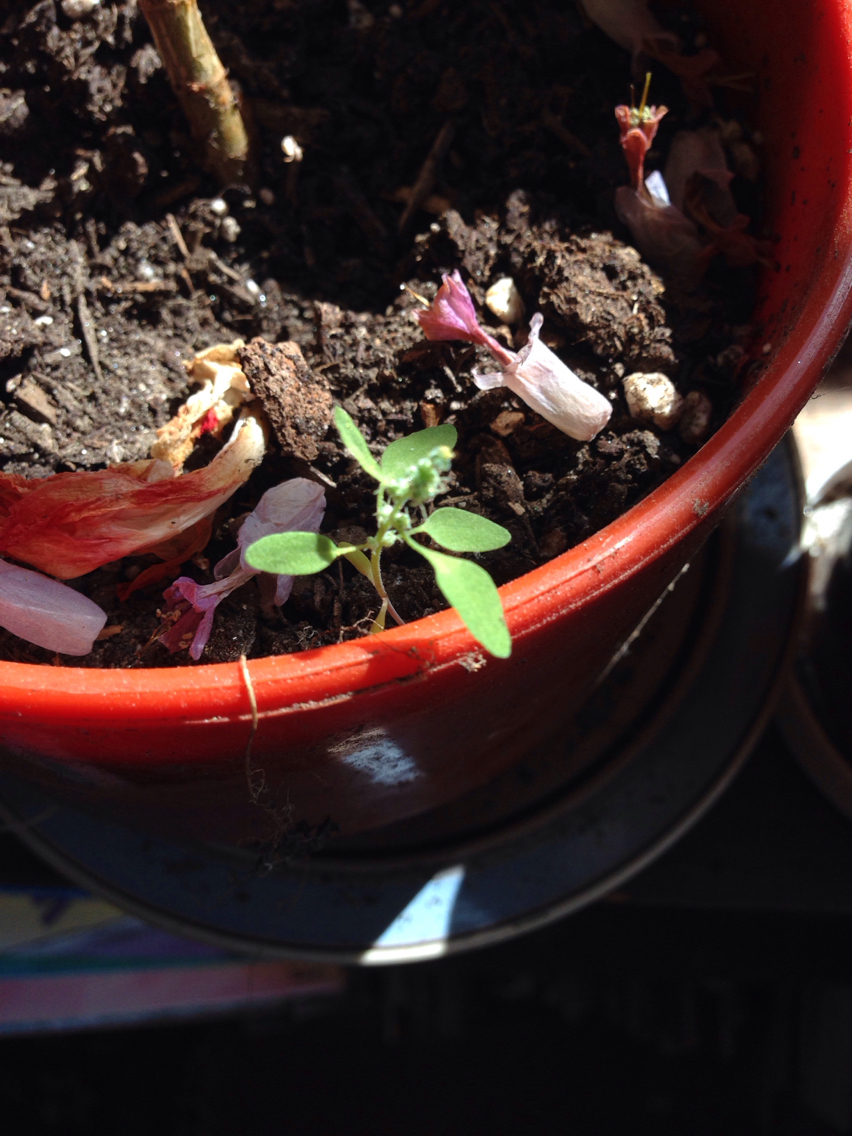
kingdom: Plantae
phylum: Tracheophyta
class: Magnoliopsida
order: Caryophyllales
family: Amaranthaceae
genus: Chenopodium
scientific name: Chenopodium album
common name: Fat-hen
